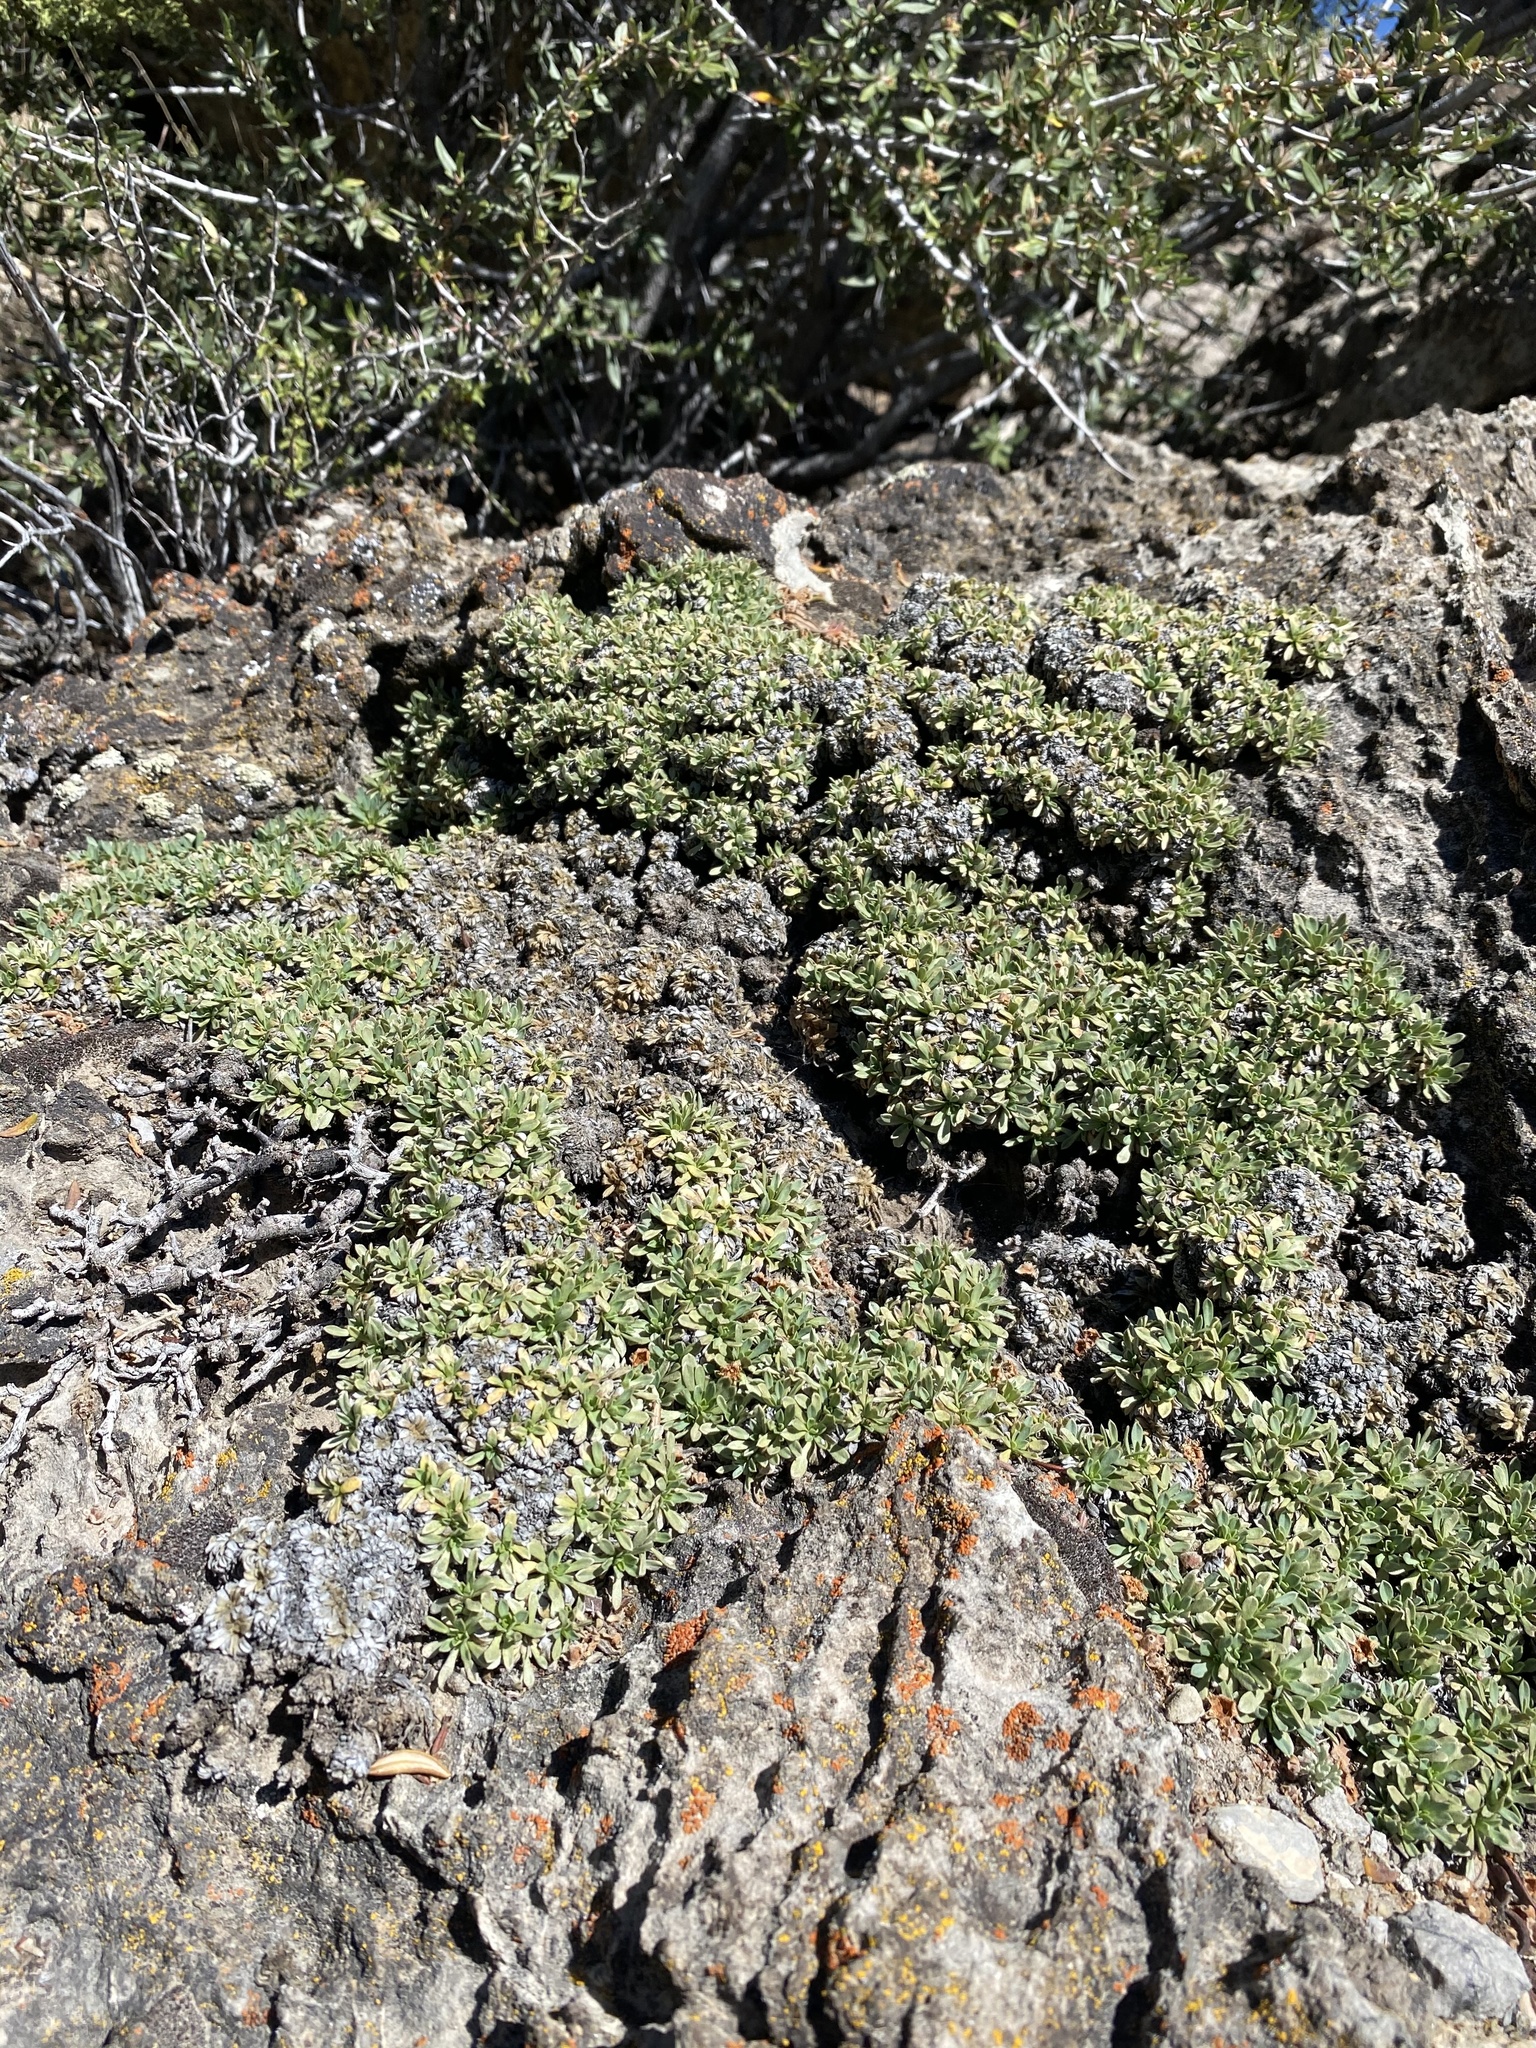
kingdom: Plantae
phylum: Tracheophyta
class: Magnoliopsida
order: Rosales
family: Rosaceae
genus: Petrophytum
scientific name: Petrophytum caespitosum
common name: Mat rockspirea
